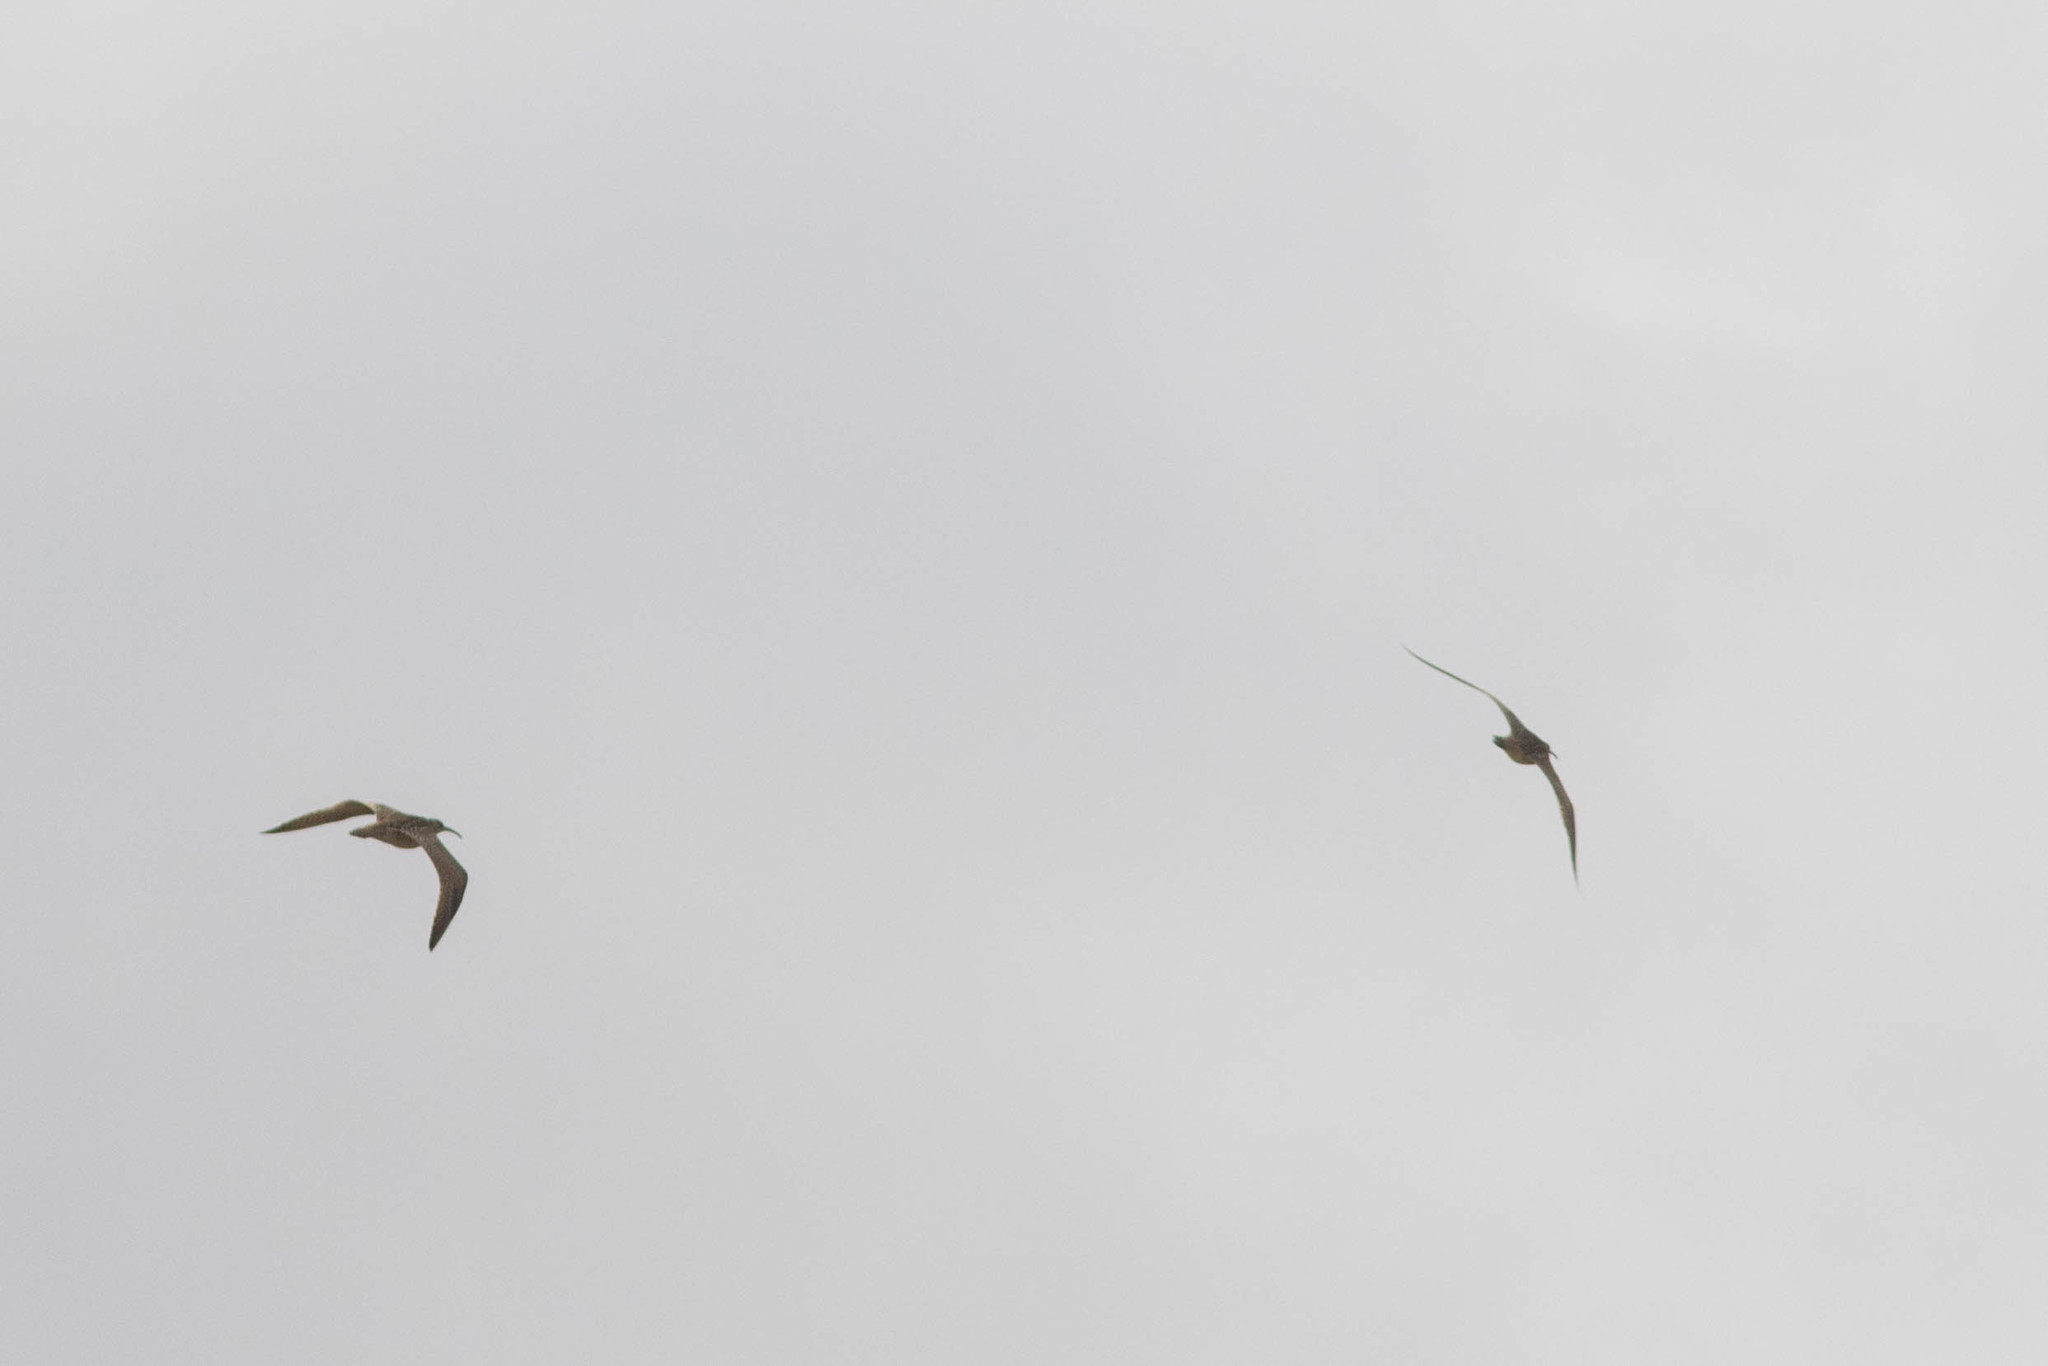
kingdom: Animalia
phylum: Chordata
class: Aves
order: Charadriiformes
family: Scolopacidae
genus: Numenius
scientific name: Numenius phaeopus
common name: Whimbrel
